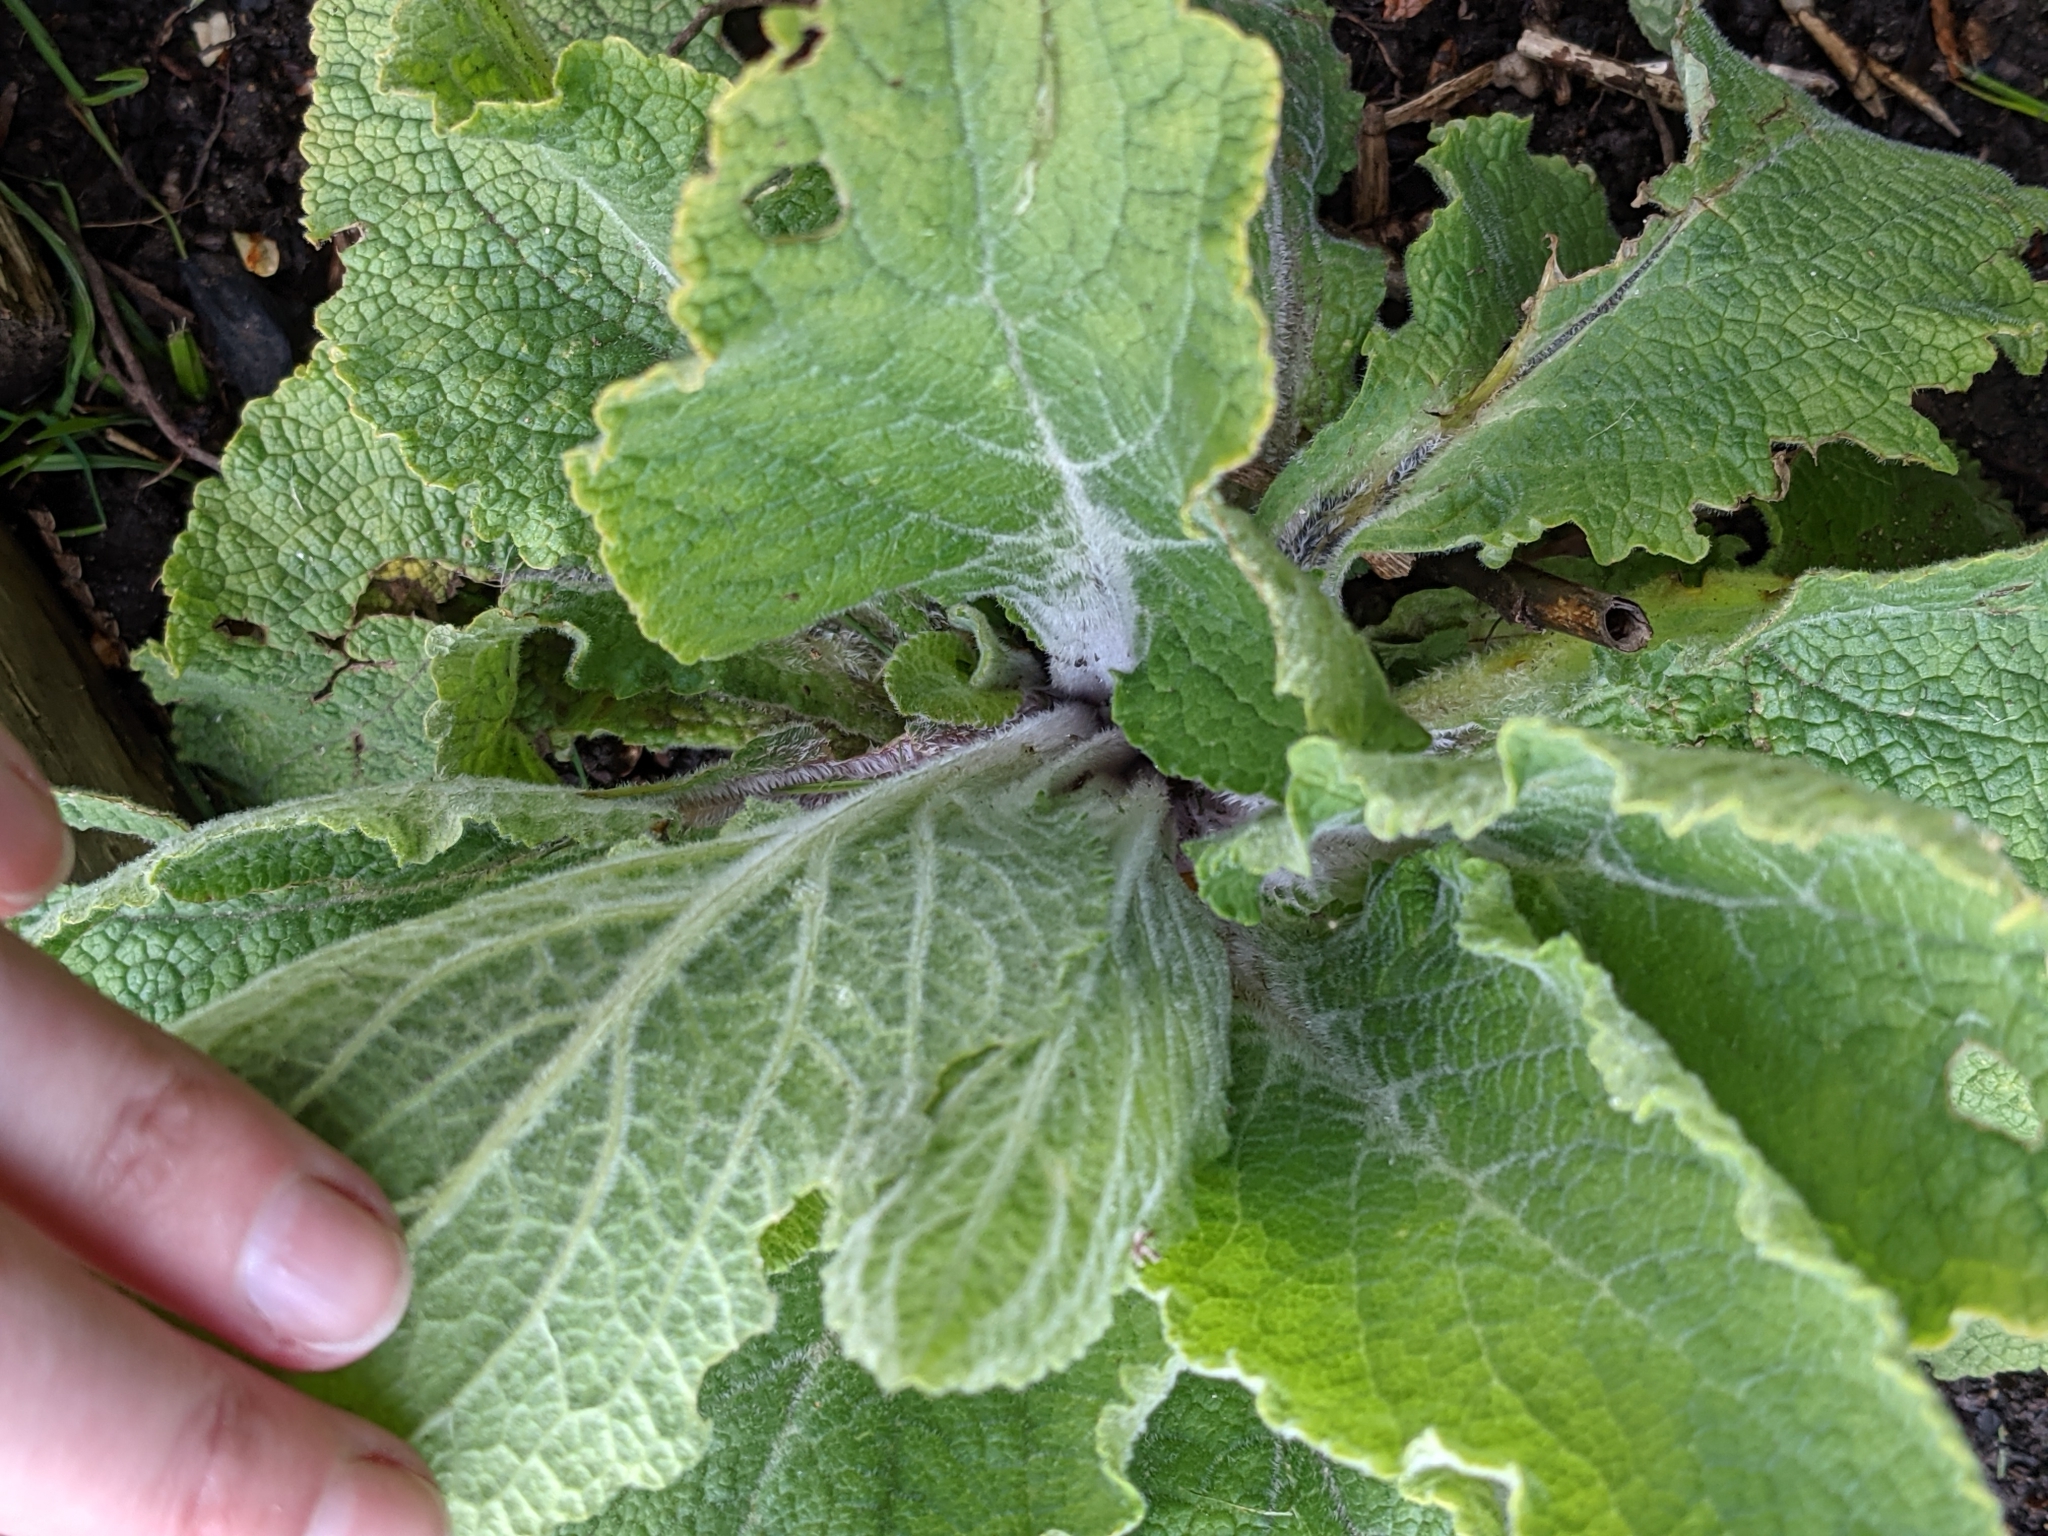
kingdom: Plantae
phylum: Tracheophyta
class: Magnoliopsida
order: Lamiales
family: Plantaginaceae
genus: Digitalis
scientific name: Digitalis purpurea
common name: Foxglove
